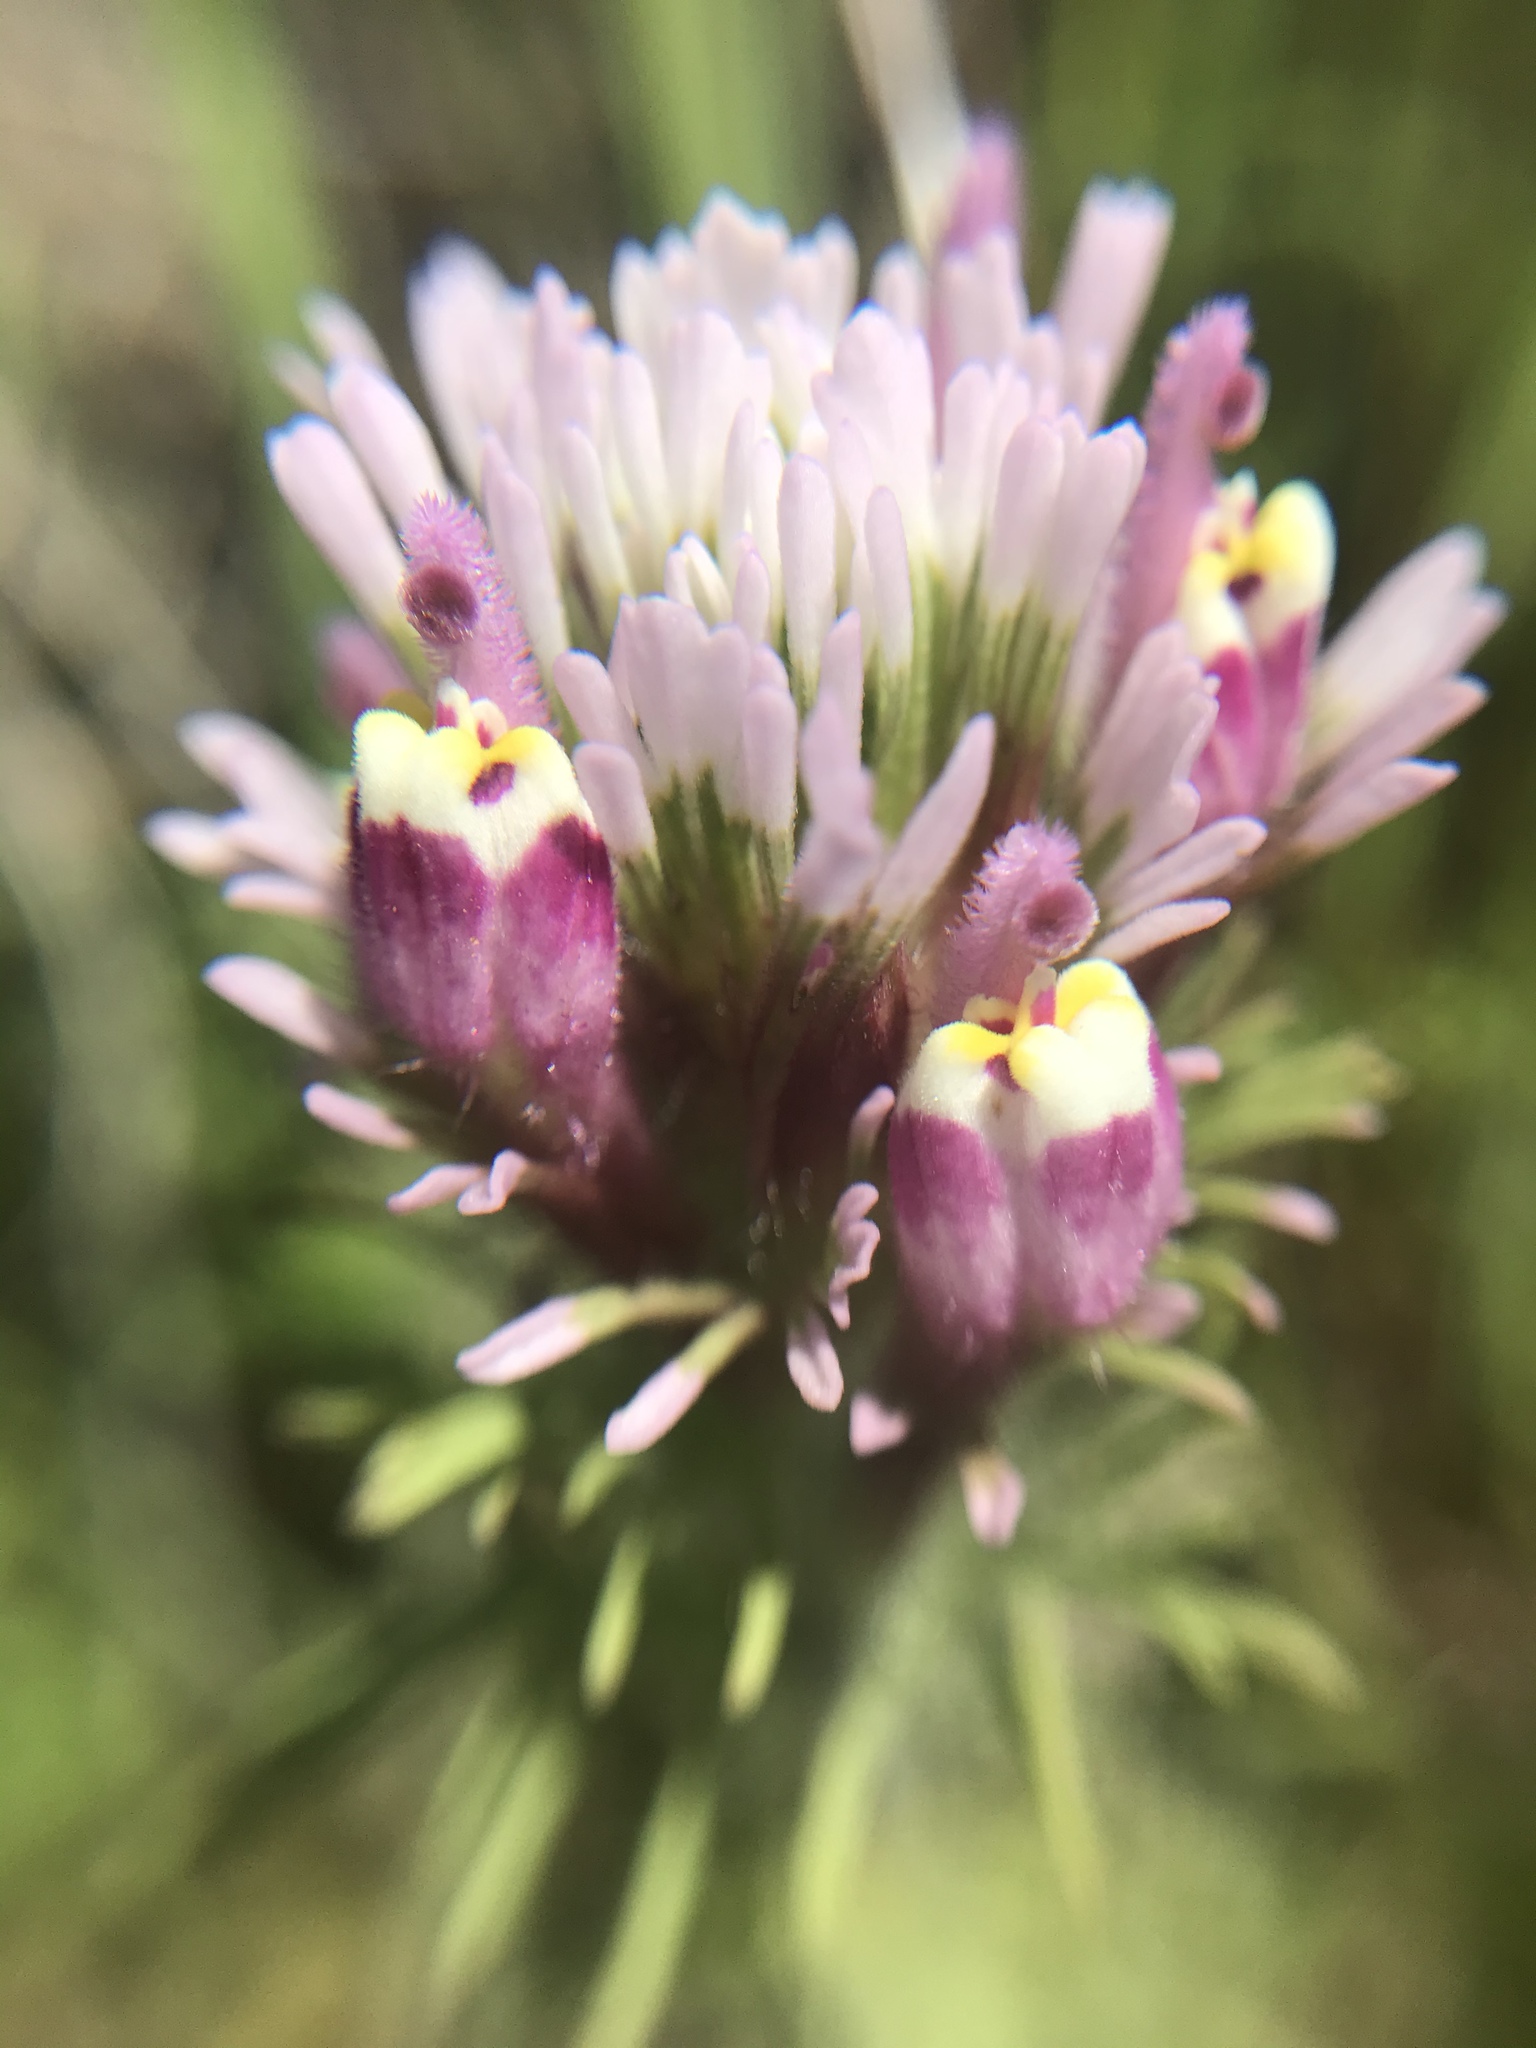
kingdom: Plantae
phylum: Tracheophyta
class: Magnoliopsida
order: Lamiales
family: Orobanchaceae
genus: Castilleja
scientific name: Castilleja exserta
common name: Purple owl-clover
